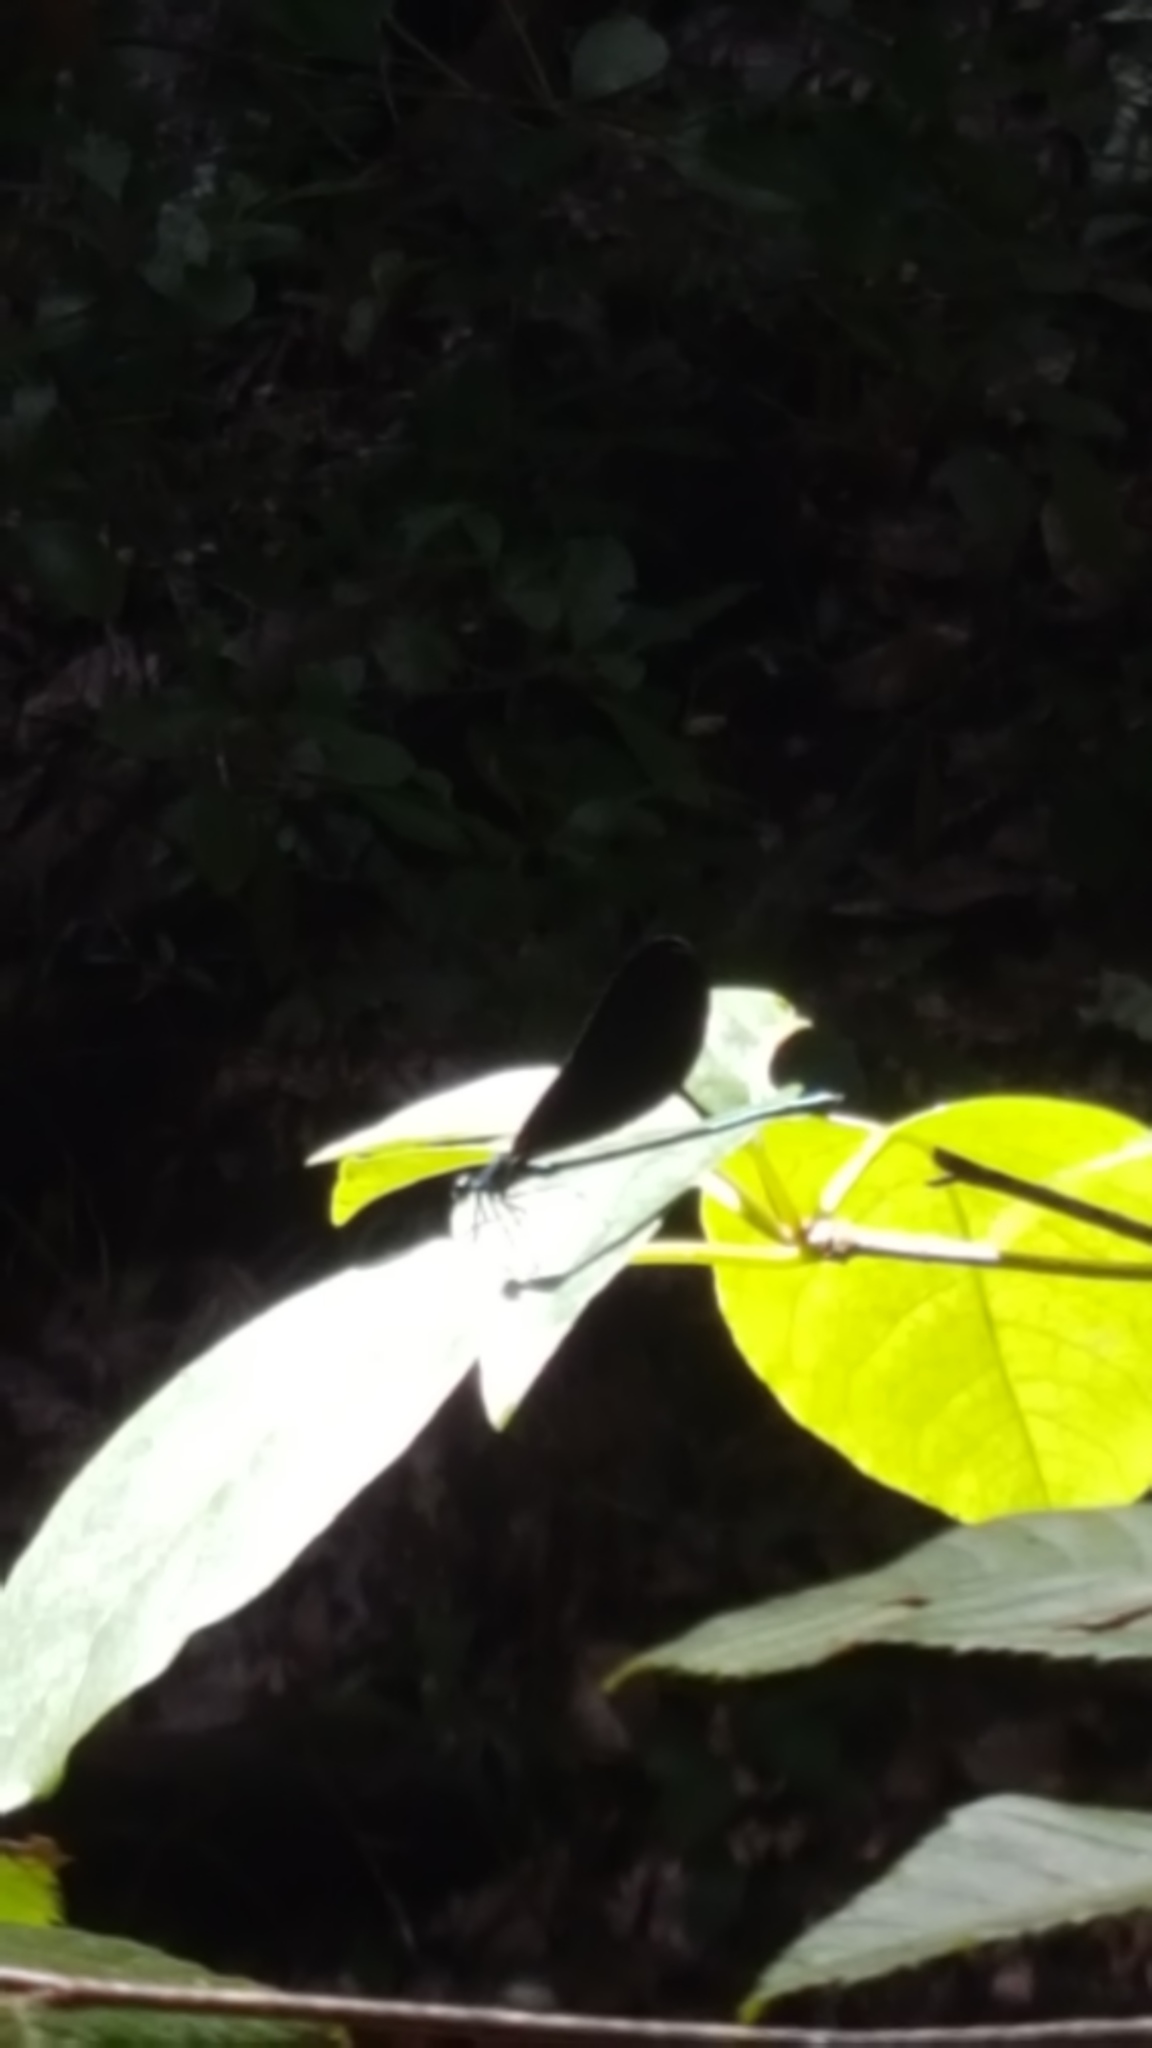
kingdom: Animalia
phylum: Arthropoda
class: Insecta
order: Odonata
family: Calopterygidae
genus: Calopteryx
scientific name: Calopteryx maculata
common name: Ebony jewelwing
